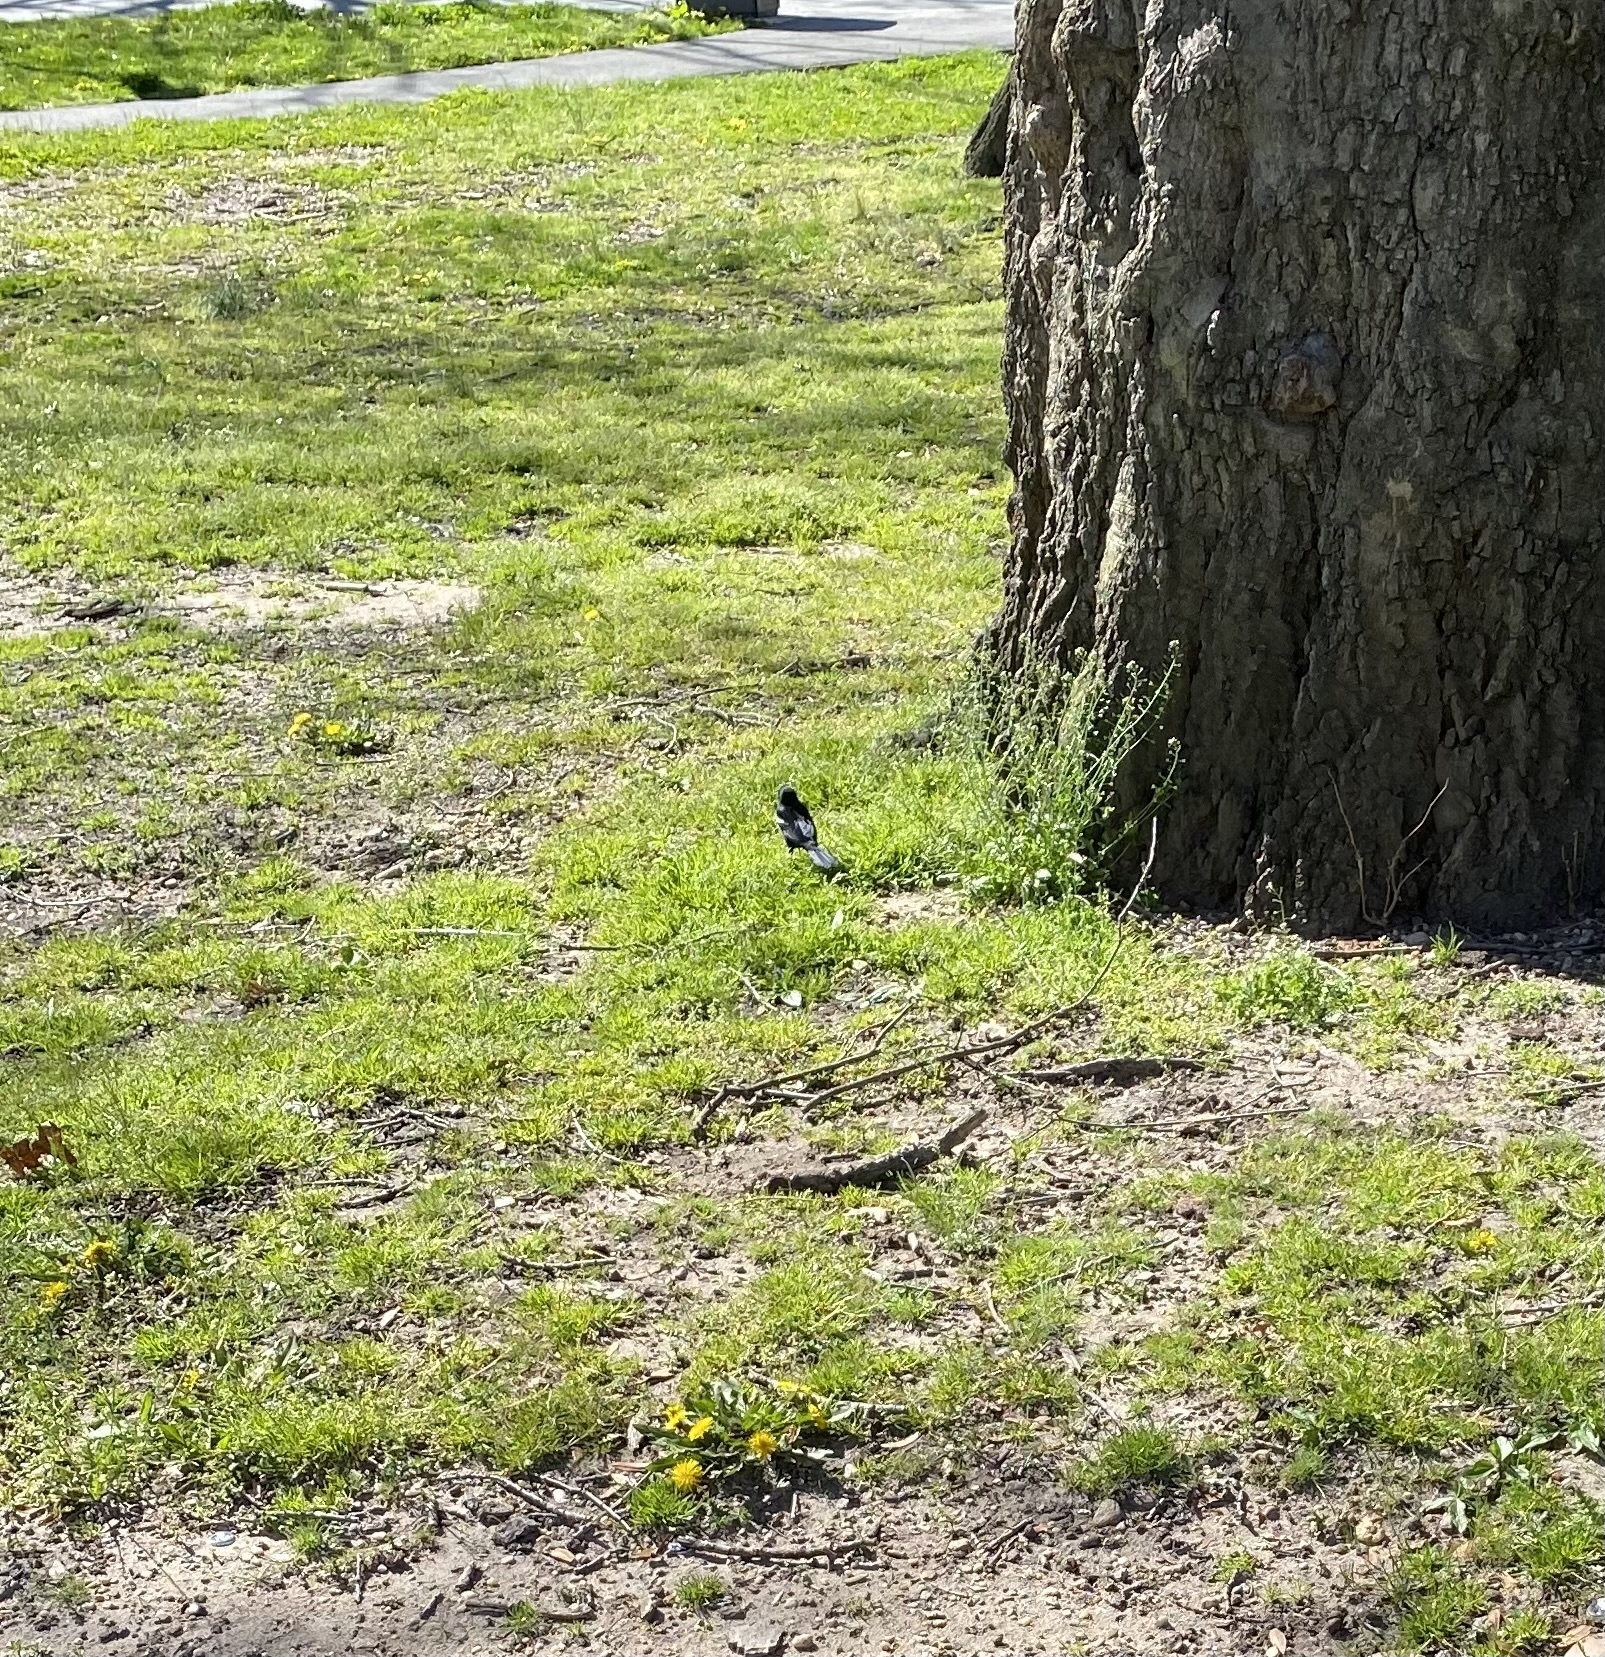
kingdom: Animalia
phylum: Chordata
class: Aves
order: Passeriformes
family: Icteridae
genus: Agelaius
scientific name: Agelaius phoeniceus
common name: Red-winged blackbird
